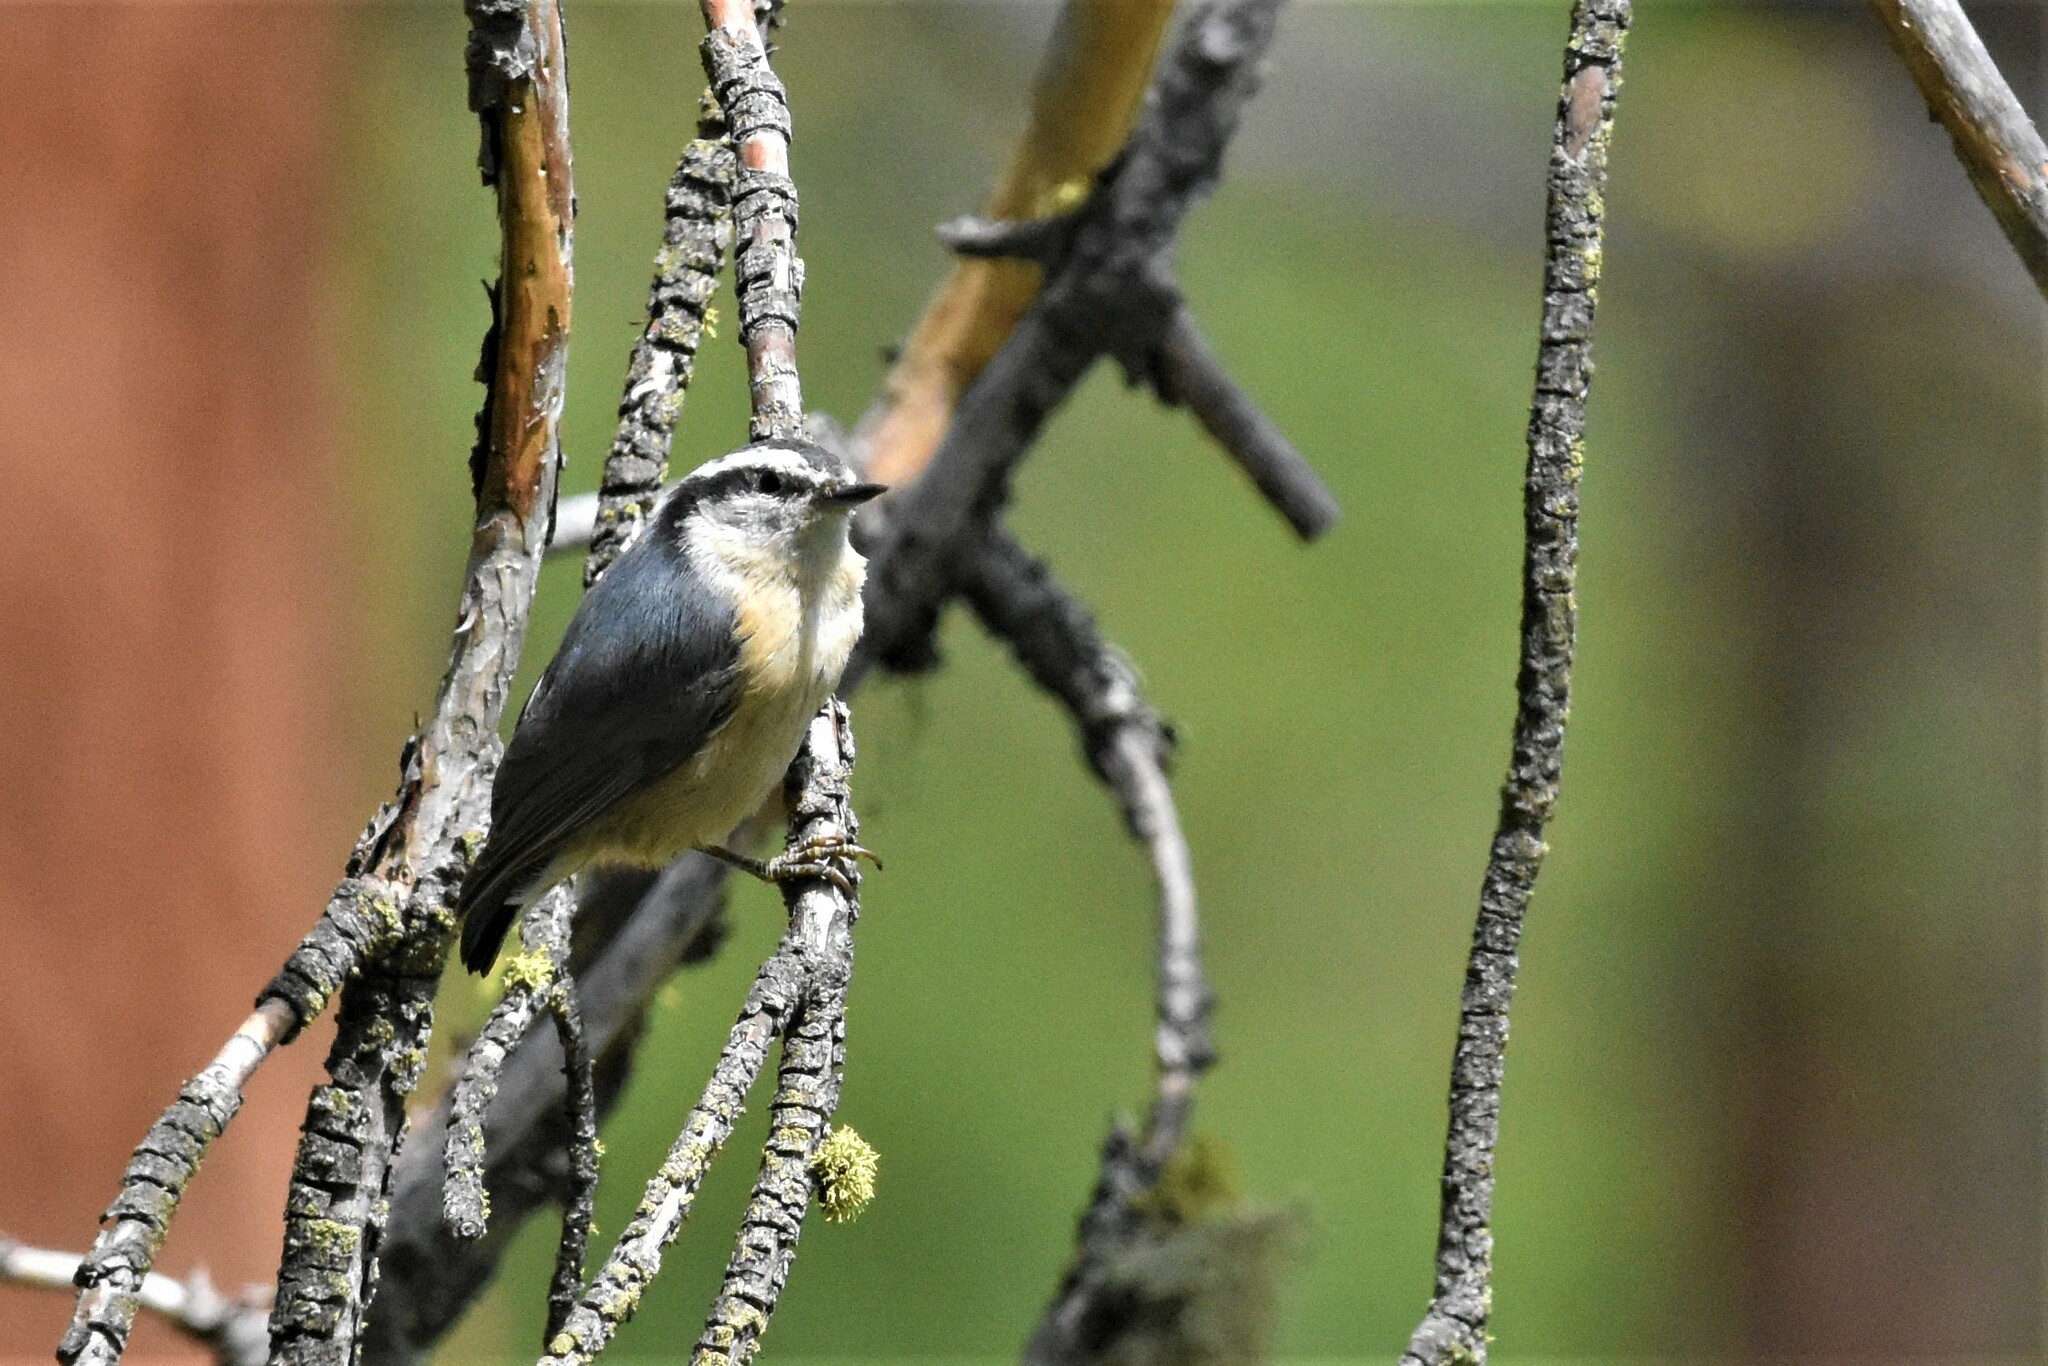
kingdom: Animalia
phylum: Chordata
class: Aves
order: Passeriformes
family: Sittidae
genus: Sitta
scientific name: Sitta canadensis
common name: Red-breasted nuthatch
